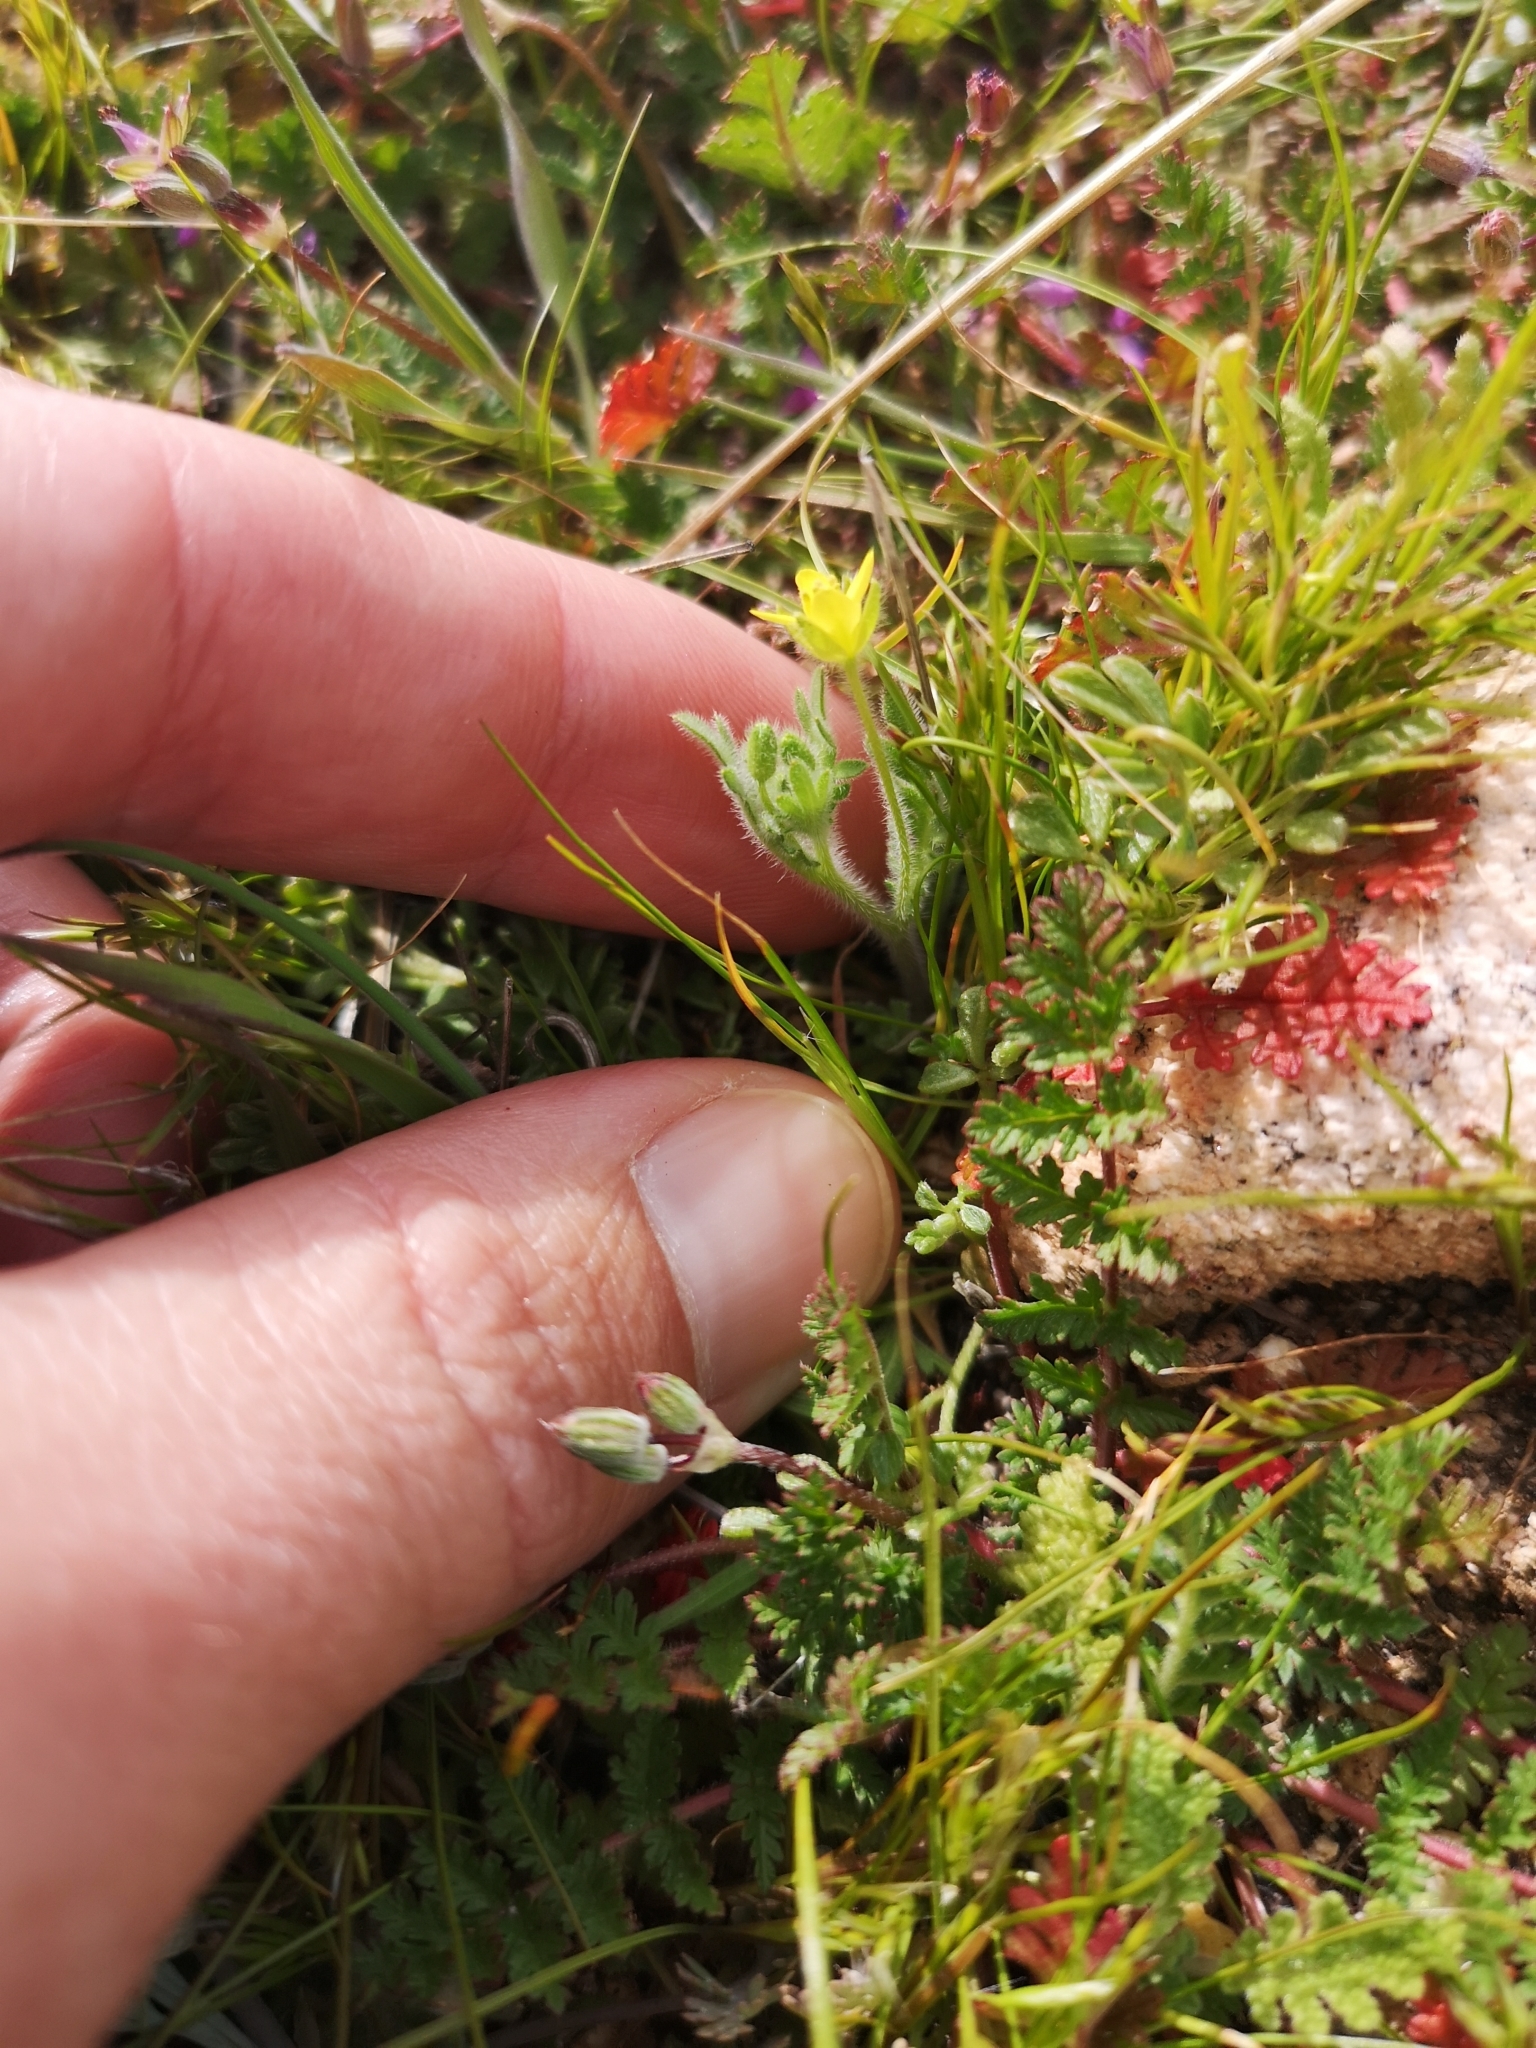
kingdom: Plantae
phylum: Tracheophyta
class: Magnoliopsida
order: Brassicales
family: Brassicaceae
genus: Tropidocarpum
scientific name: Tropidocarpum gracile
